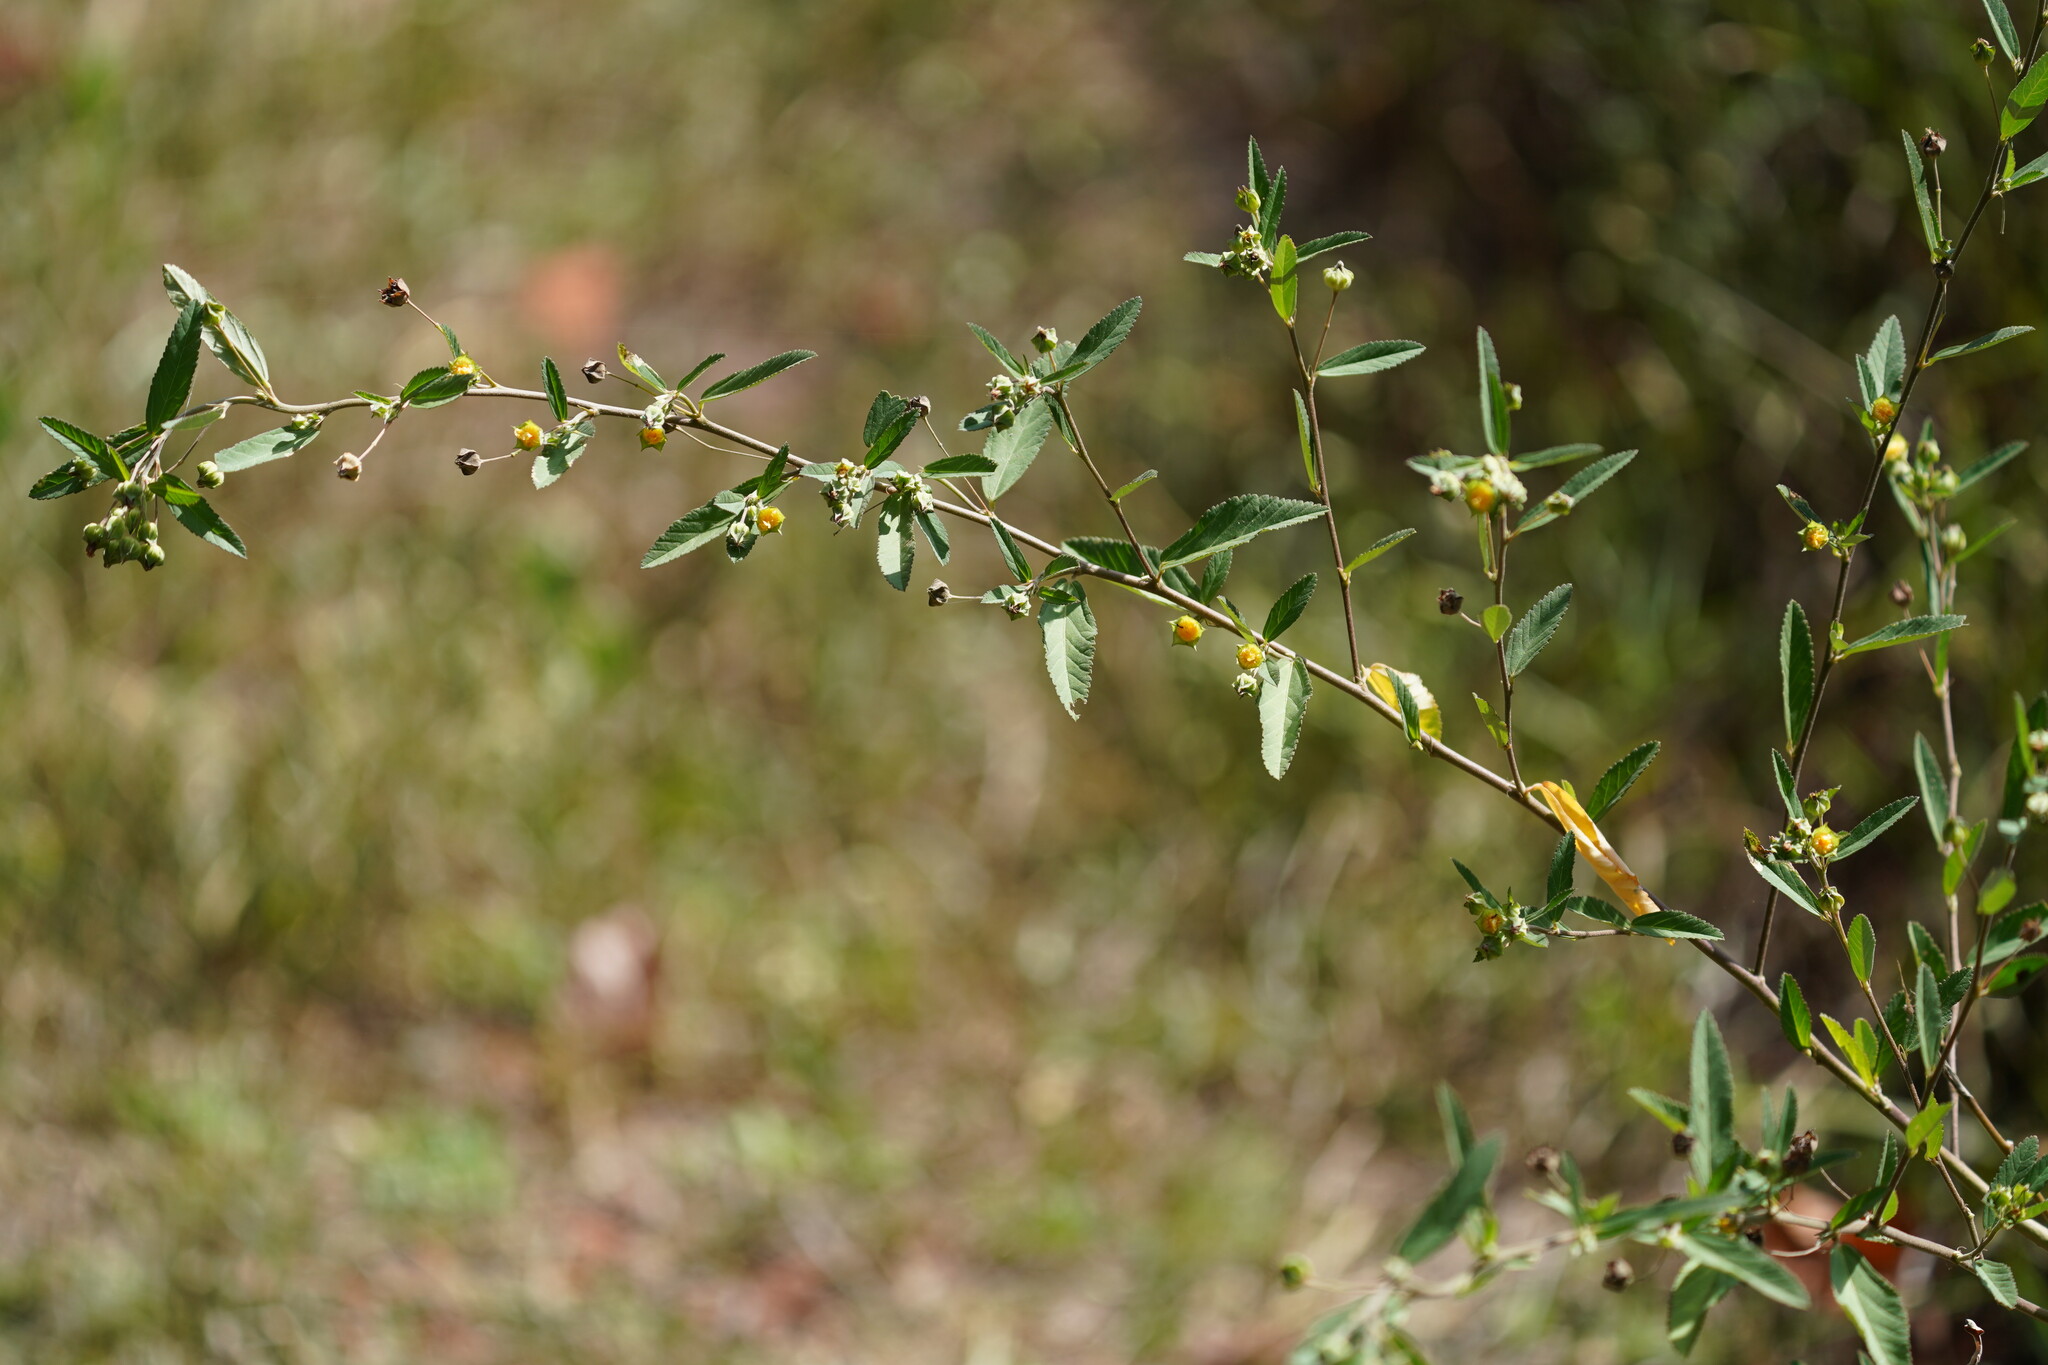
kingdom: Plantae
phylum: Tracheophyta
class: Magnoliopsida
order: Malvales
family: Malvaceae
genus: Sida
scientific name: Sida rhombifolia
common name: Queensland-hemp
